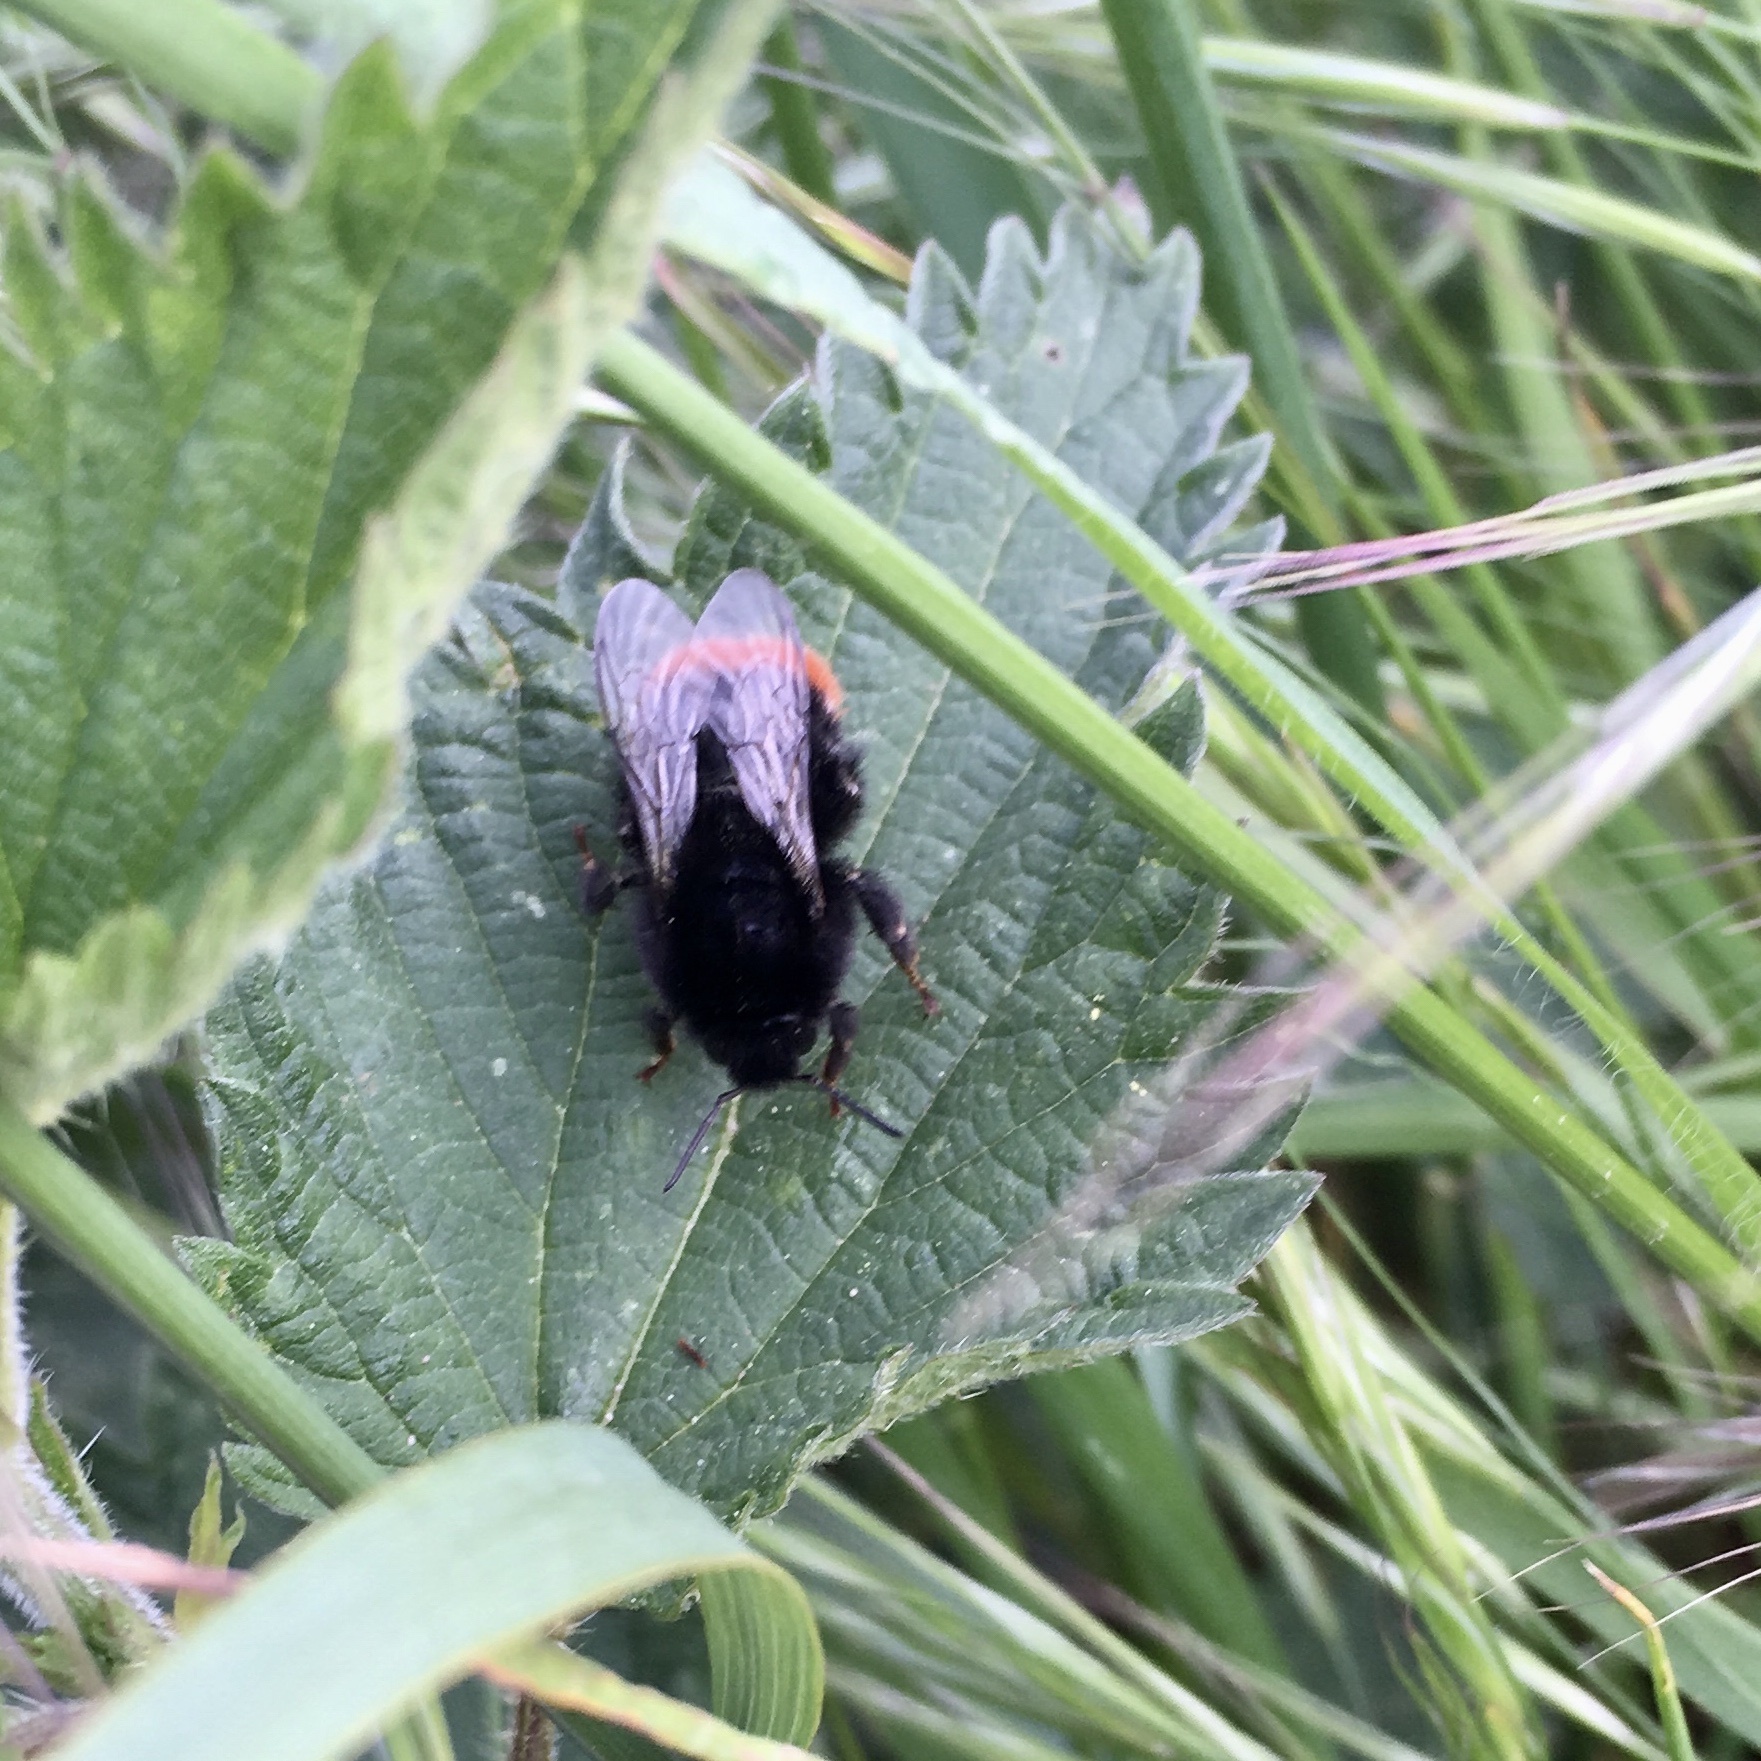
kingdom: Animalia
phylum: Arthropoda
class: Insecta
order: Hymenoptera
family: Apidae
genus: Bombus
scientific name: Bombus lapidarius
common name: Large red-tailed humble-bee
